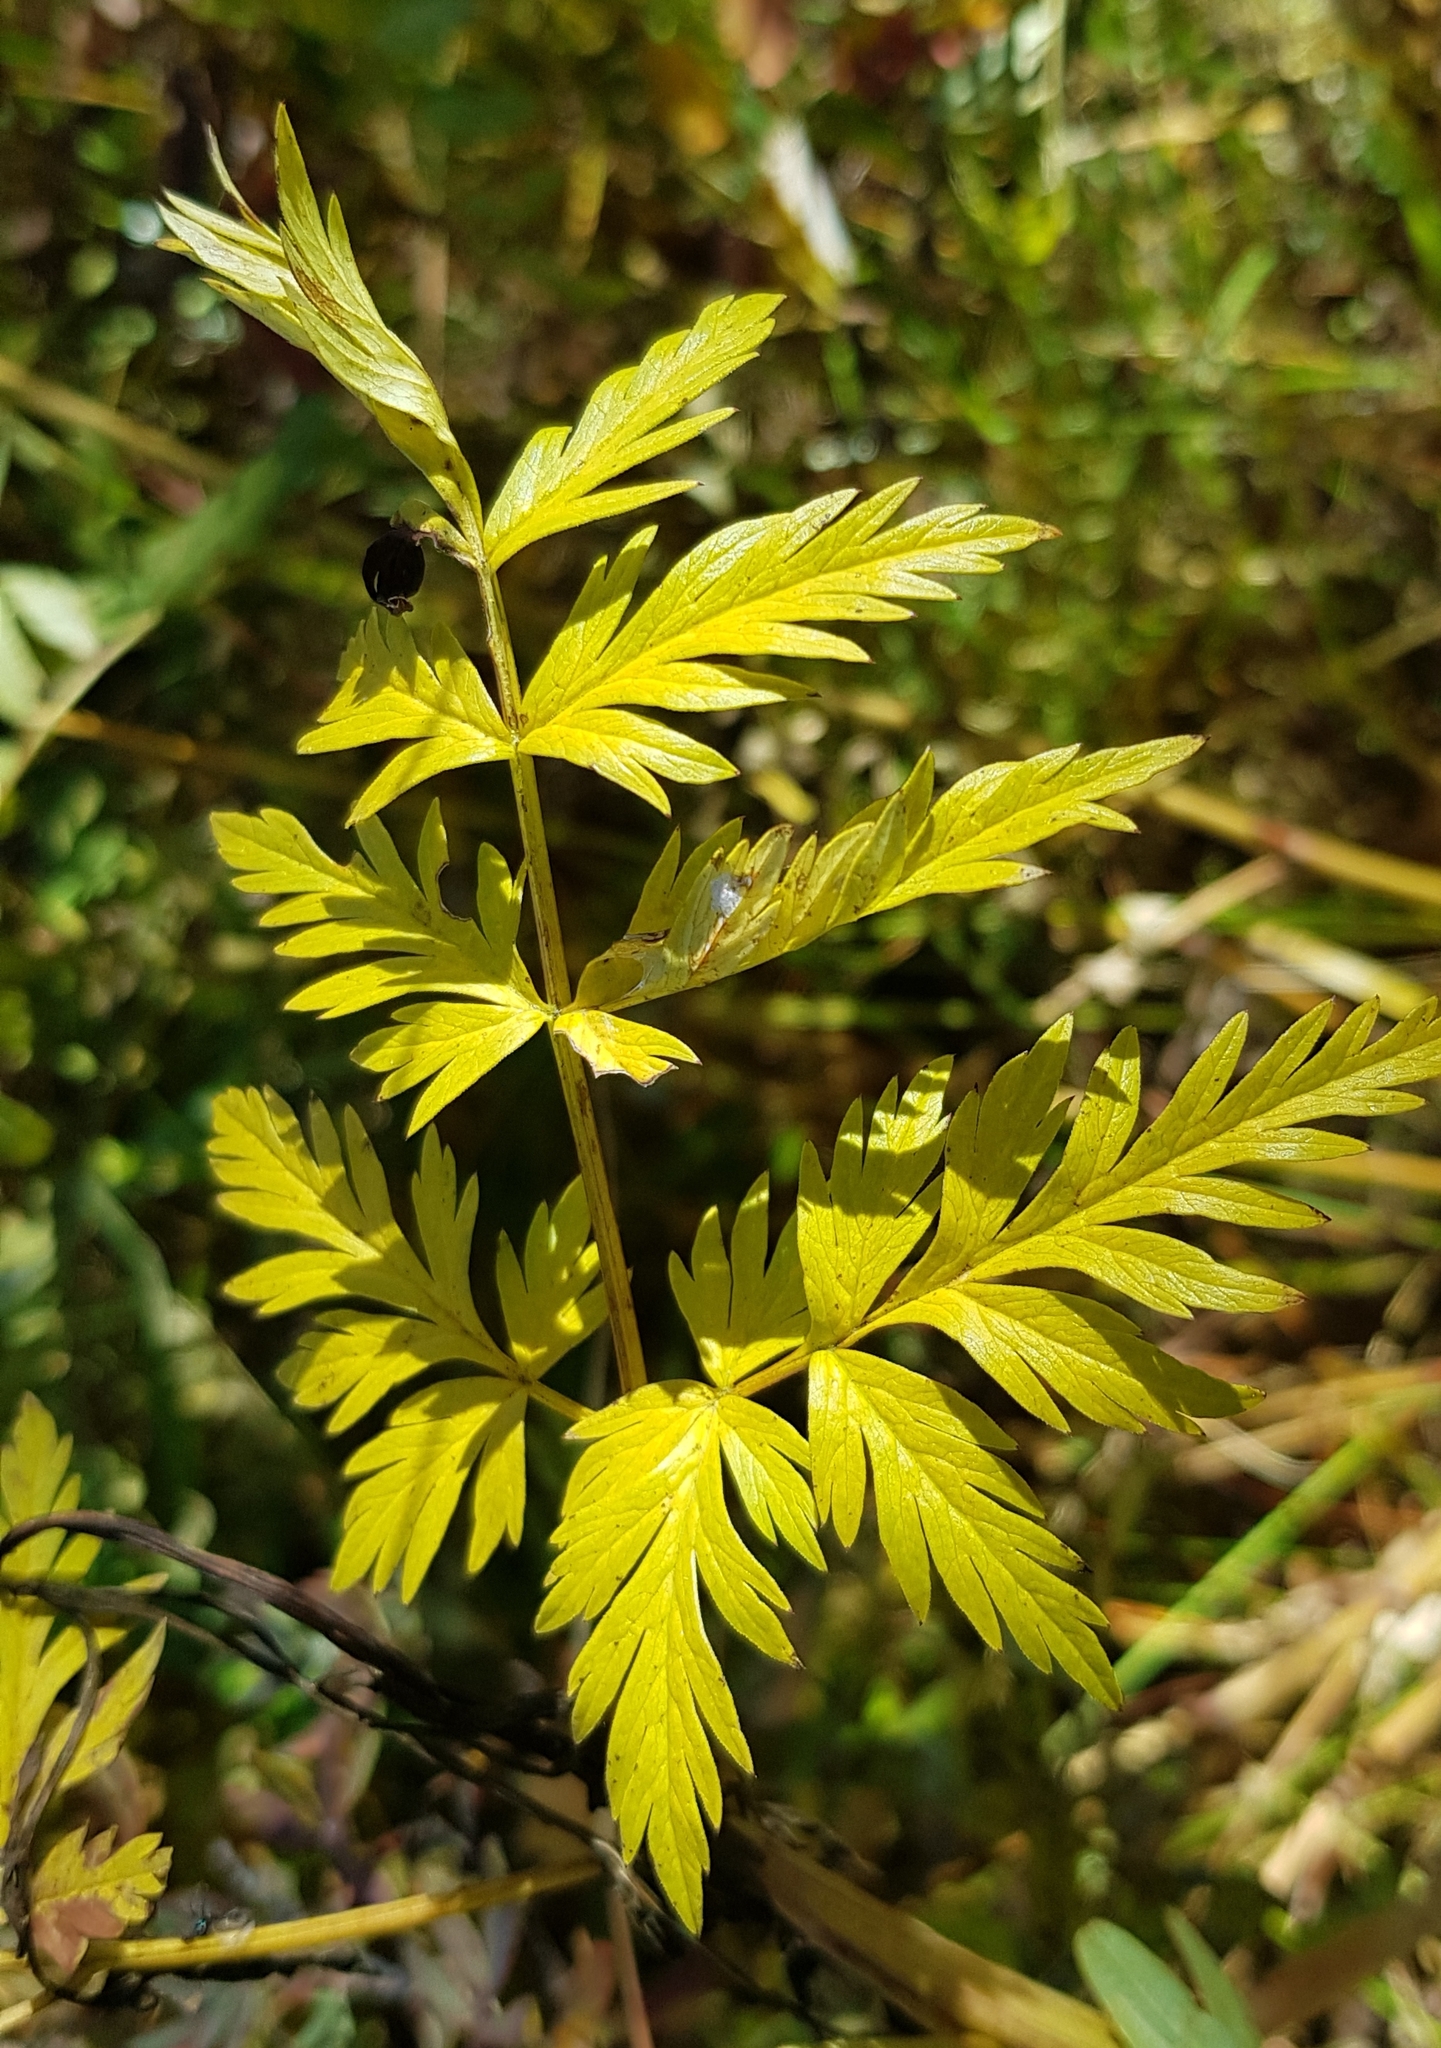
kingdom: Plantae
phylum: Tracheophyta
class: Magnoliopsida
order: Apiales
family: Apiaceae
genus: Conioselinum
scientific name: Conioselinum tataricum
